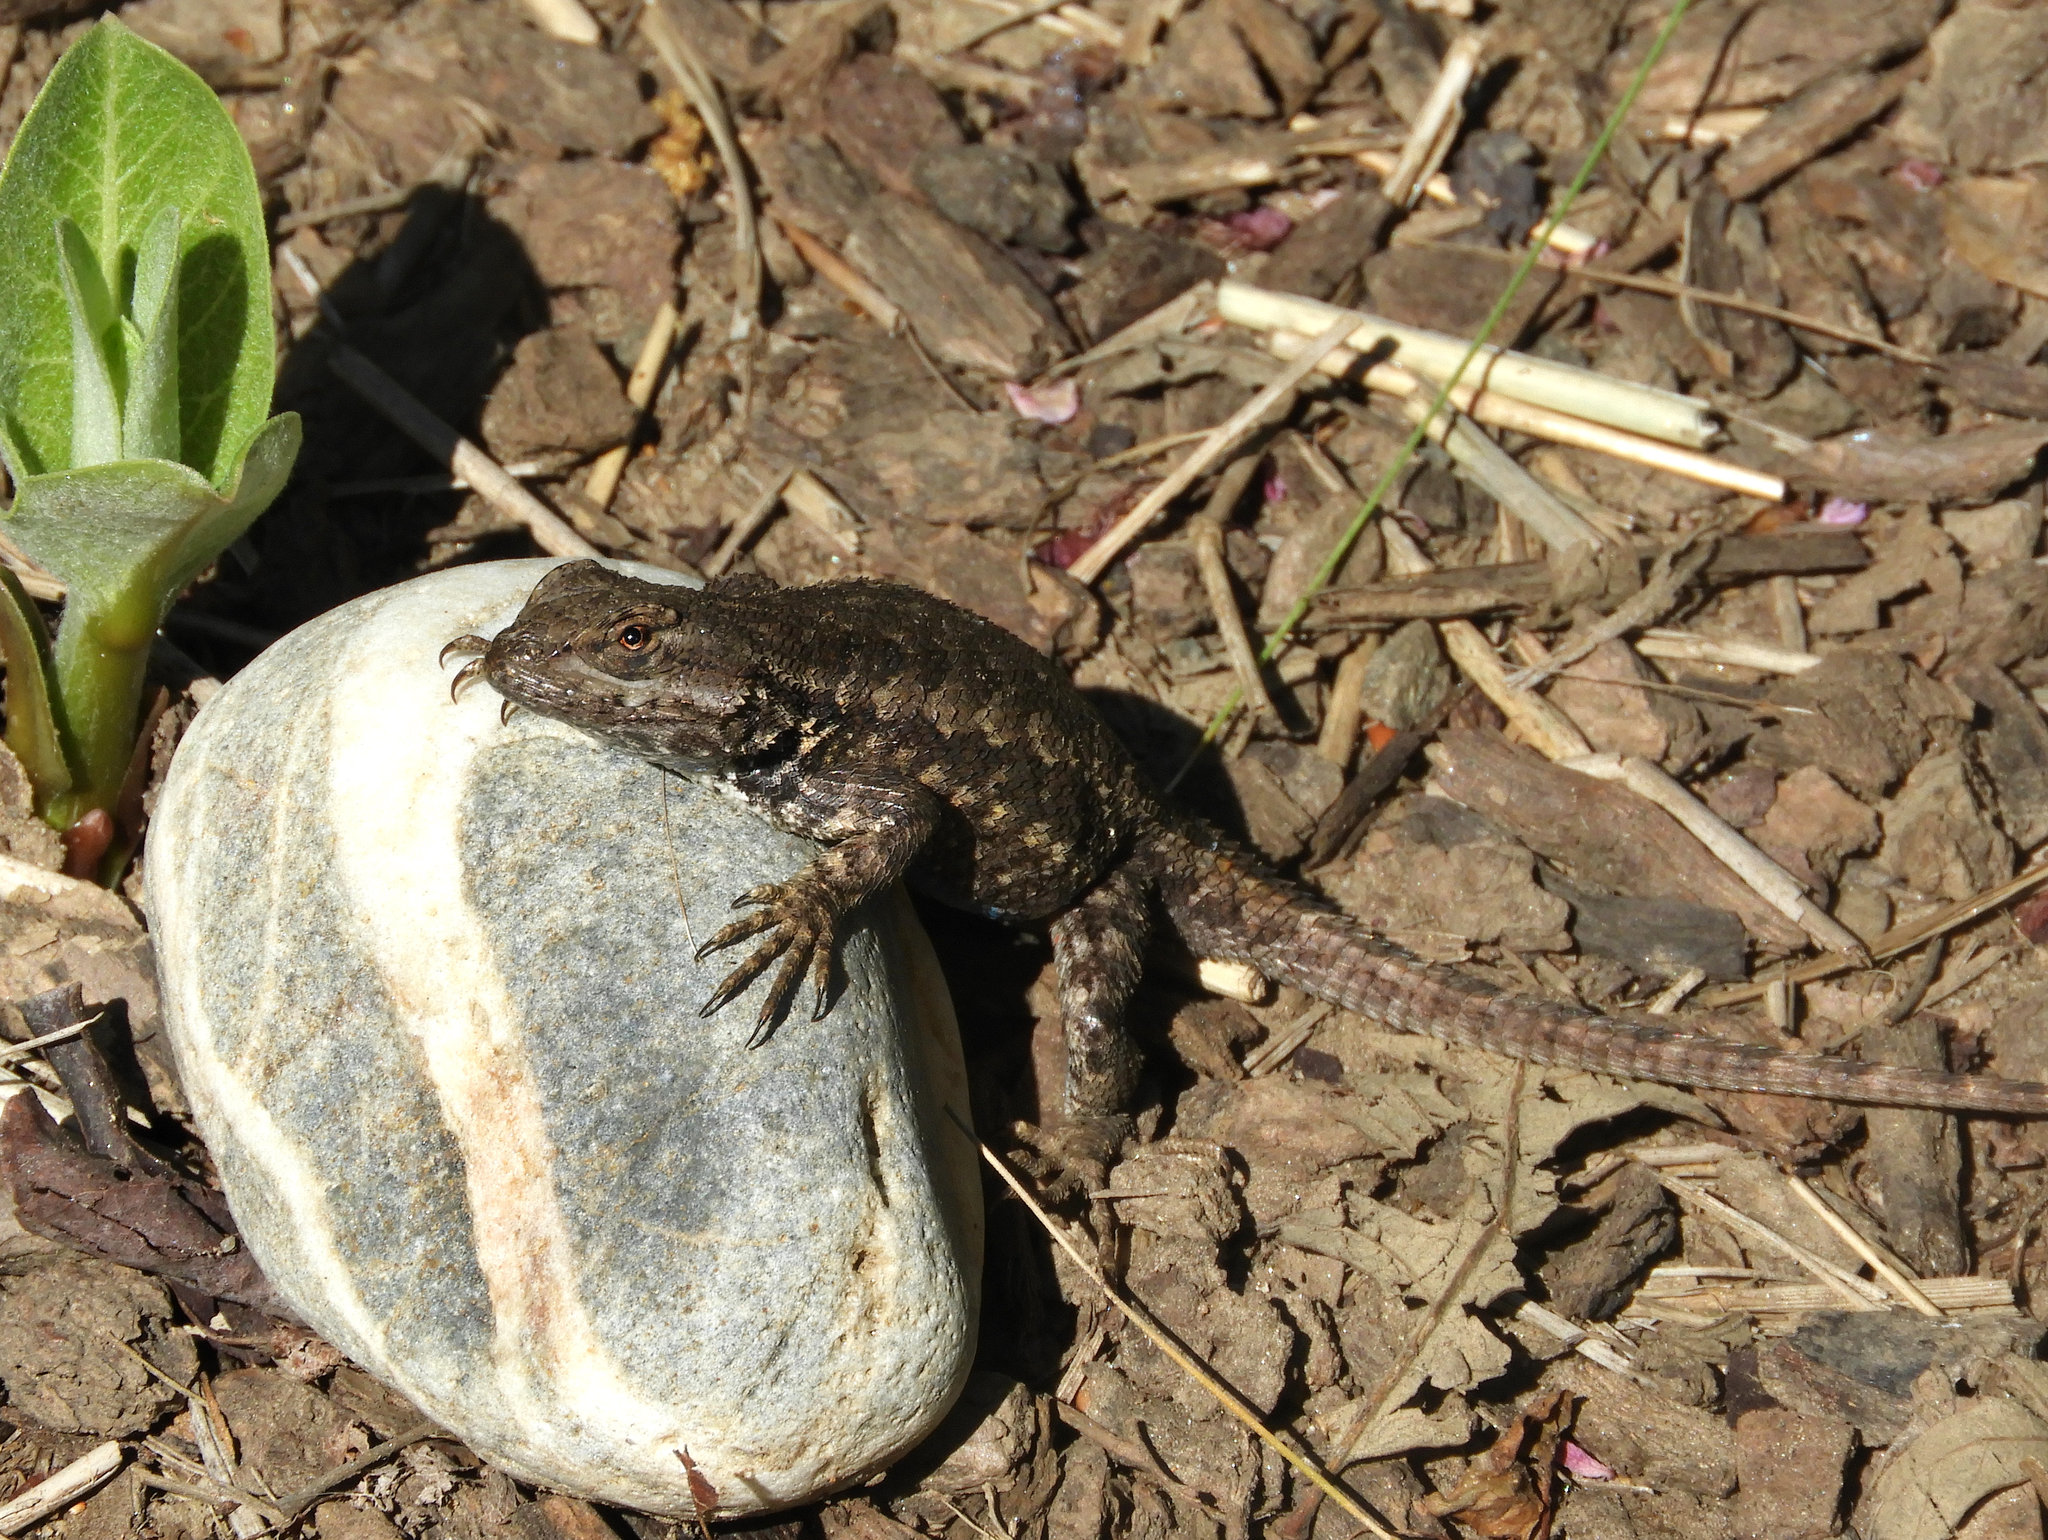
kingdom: Animalia
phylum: Chordata
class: Squamata
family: Phrynosomatidae
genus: Sceloporus
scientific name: Sceloporus occidentalis
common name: Western fence lizard
